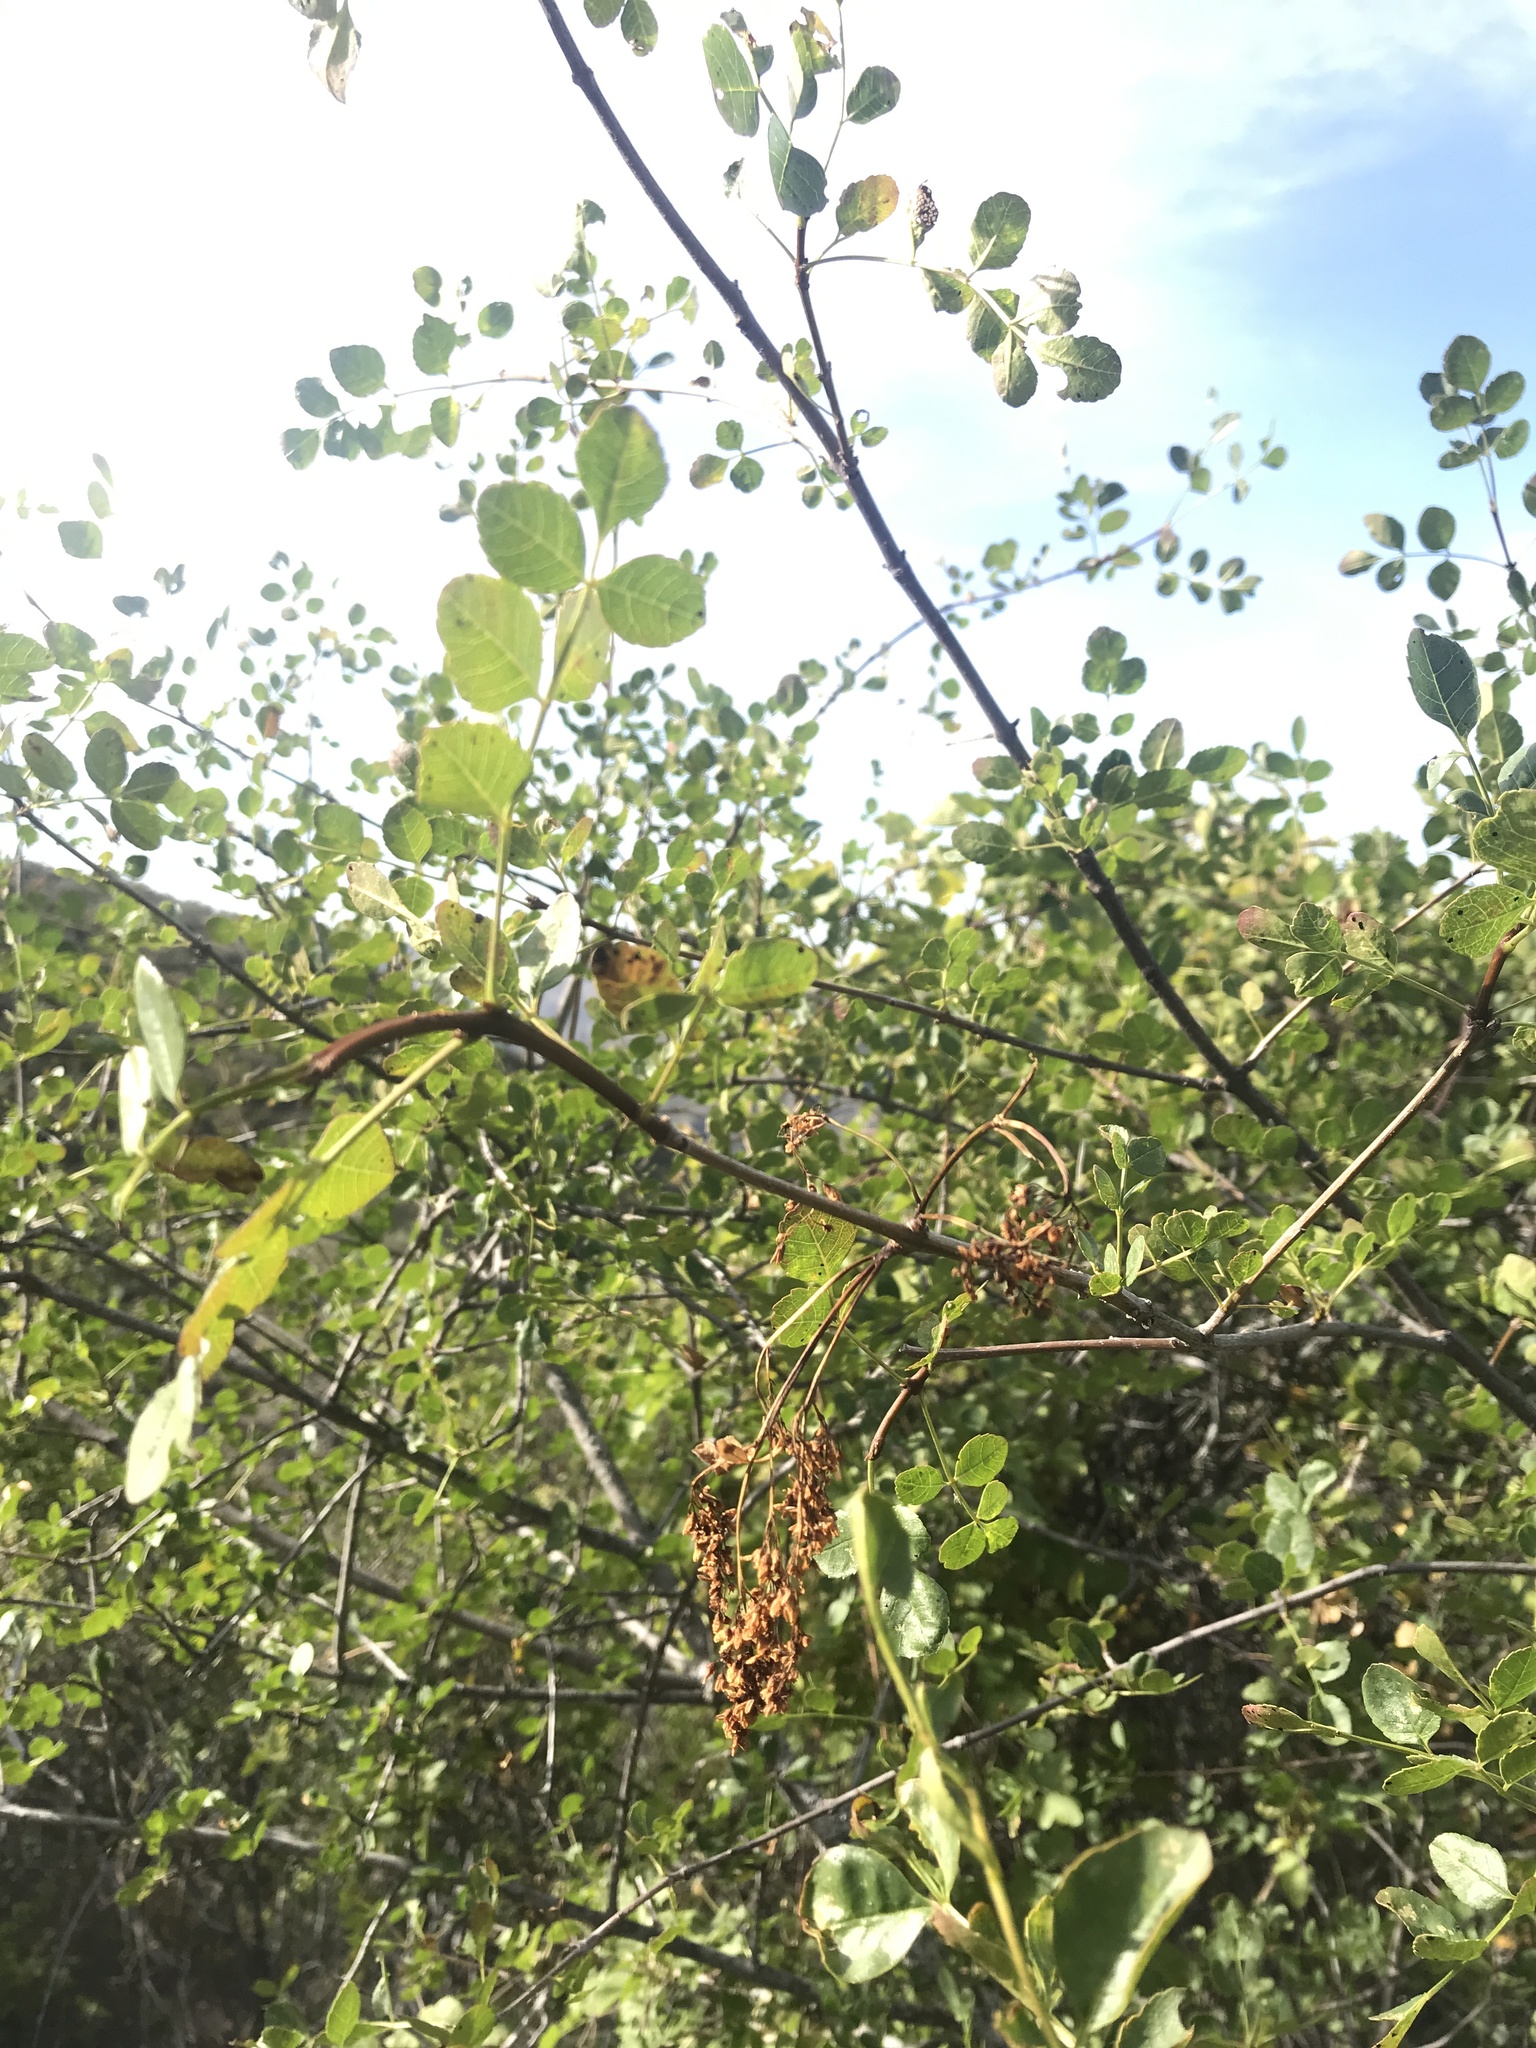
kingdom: Plantae
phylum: Tracheophyta
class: Magnoliopsida
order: Lamiales
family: Oleaceae
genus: Fraxinus
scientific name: Fraxinus dipetala
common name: California ash
